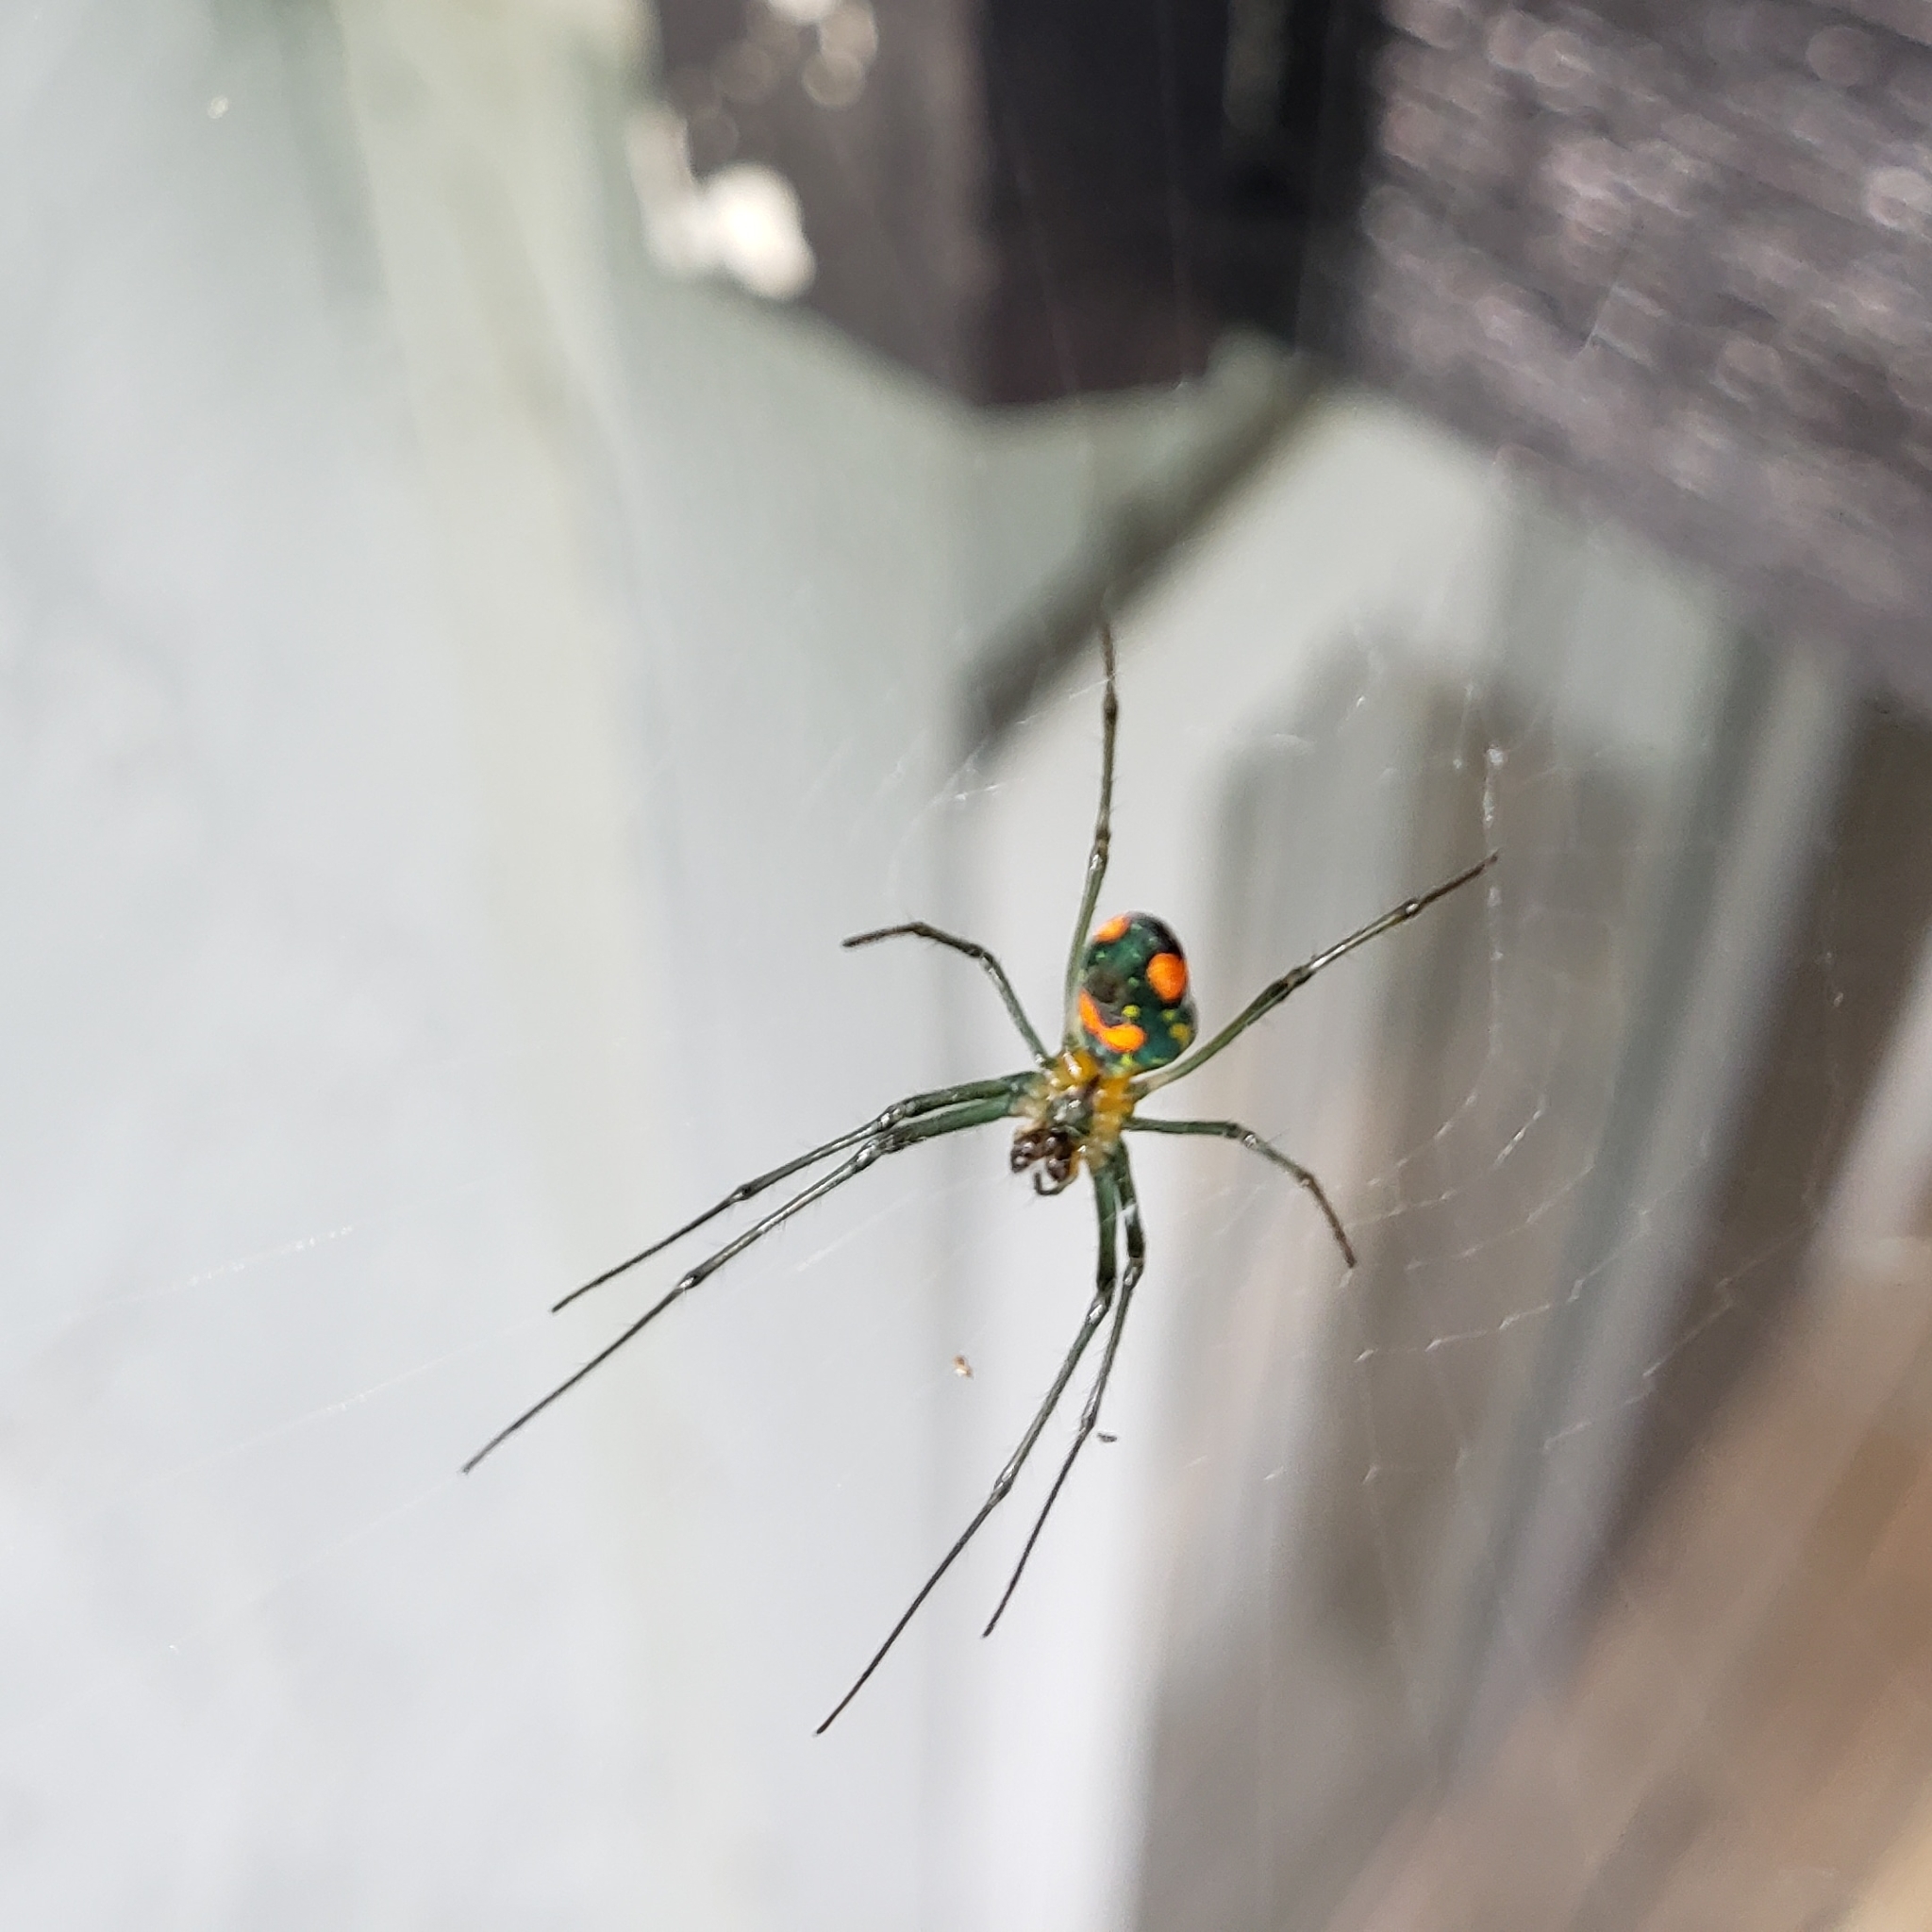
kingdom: Animalia
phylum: Arthropoda
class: Arachnida
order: Araneae
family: Tetragnathidae
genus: Leucauge
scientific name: Leucauge argyrobapta
